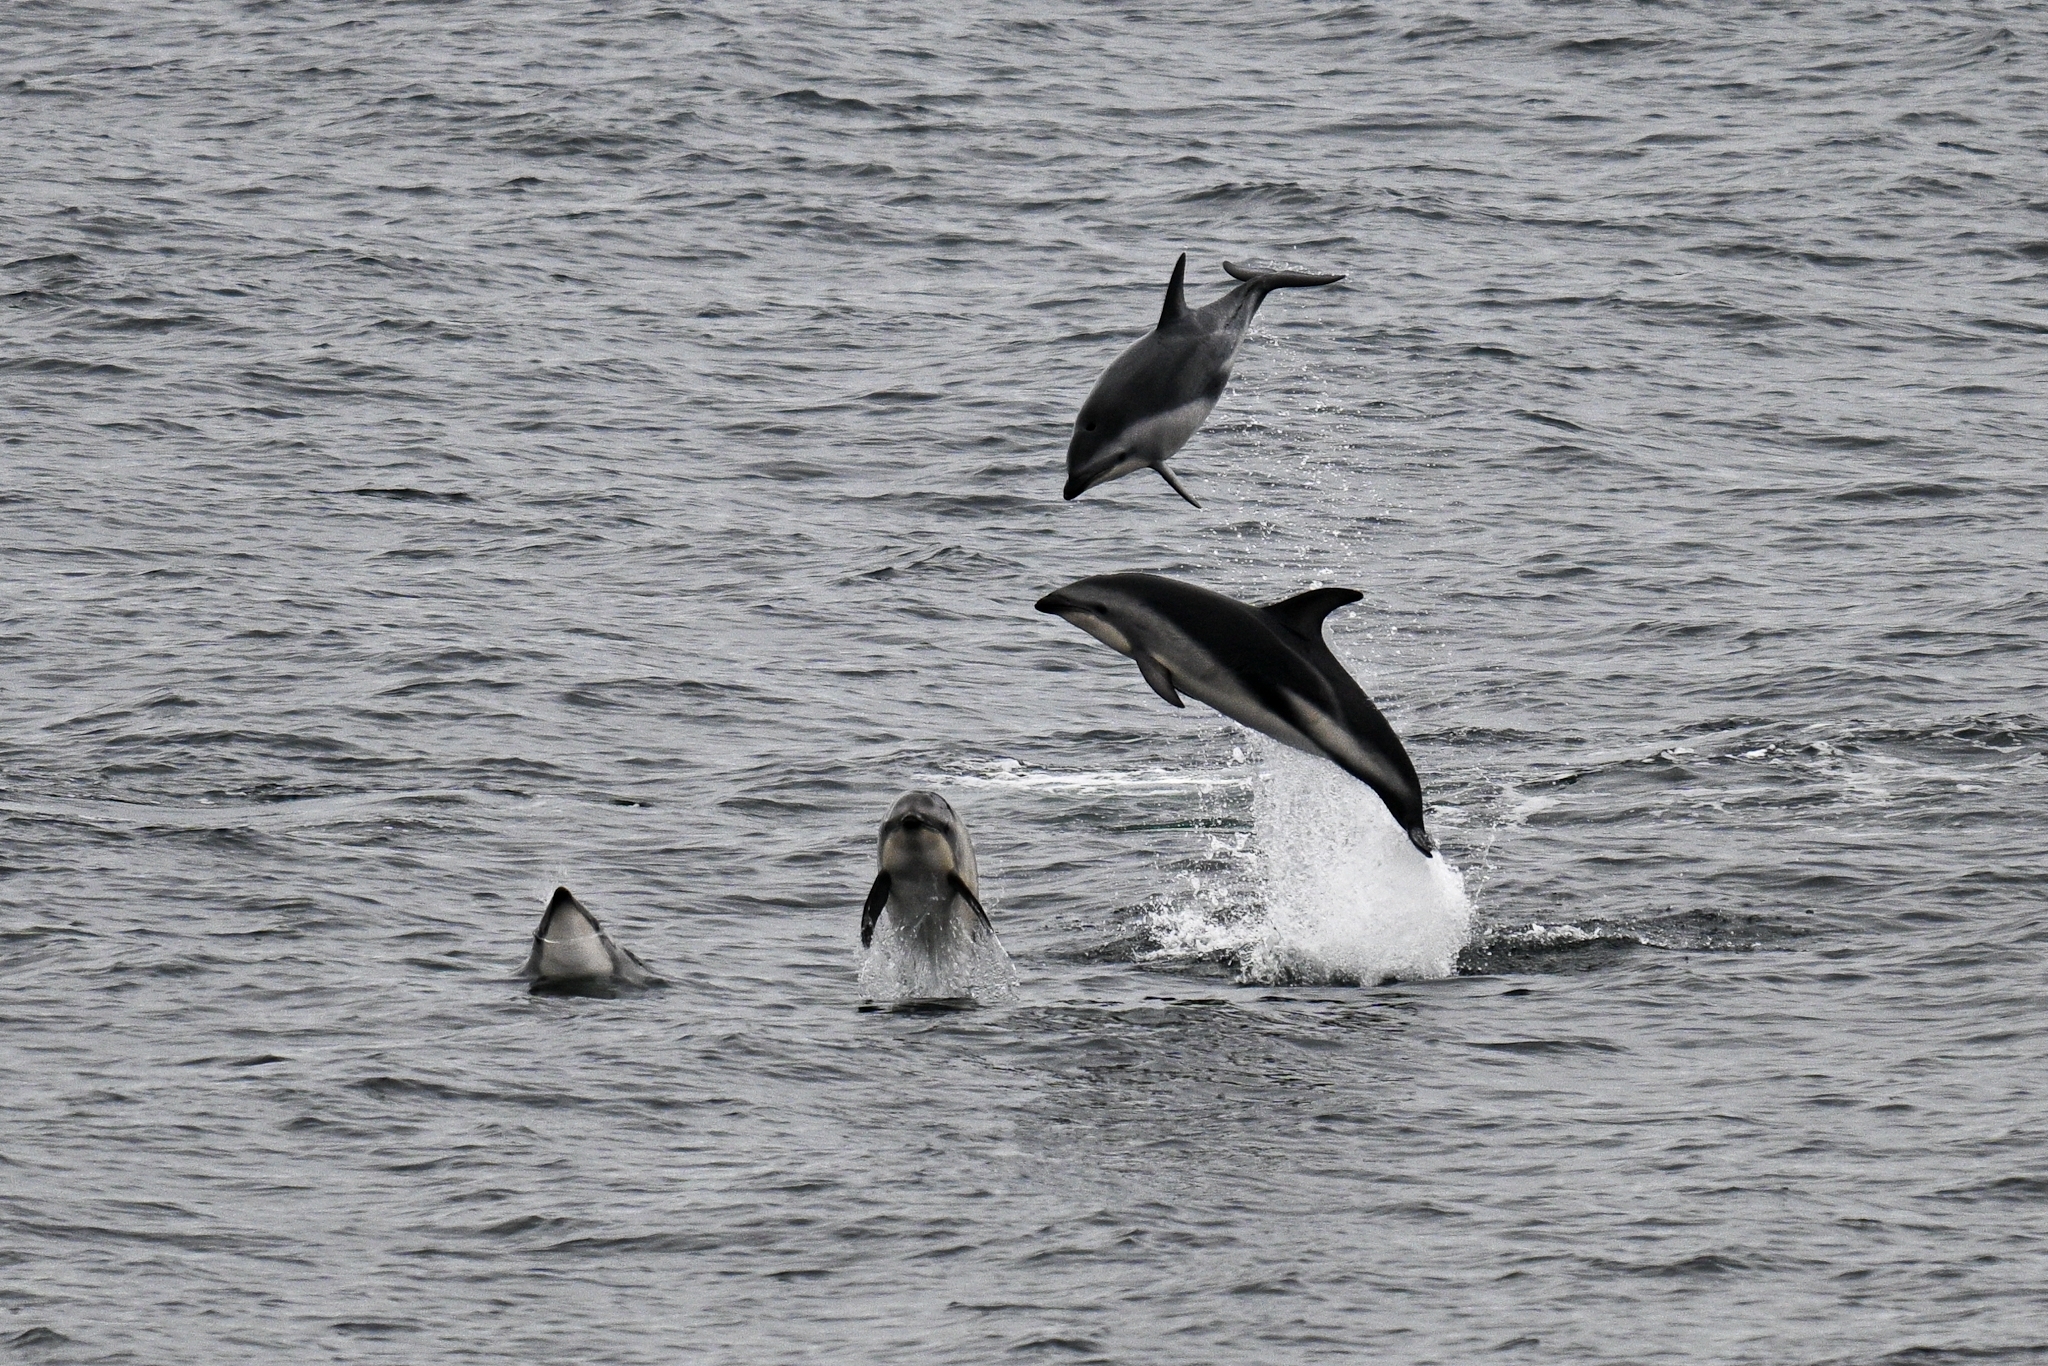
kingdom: Animalia
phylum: Chordata
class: Mammalia
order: Cetacea
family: Delphinidae
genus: Lagenorhynchus
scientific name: Lagenorhynchus obscurus
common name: Dusky dolphin
